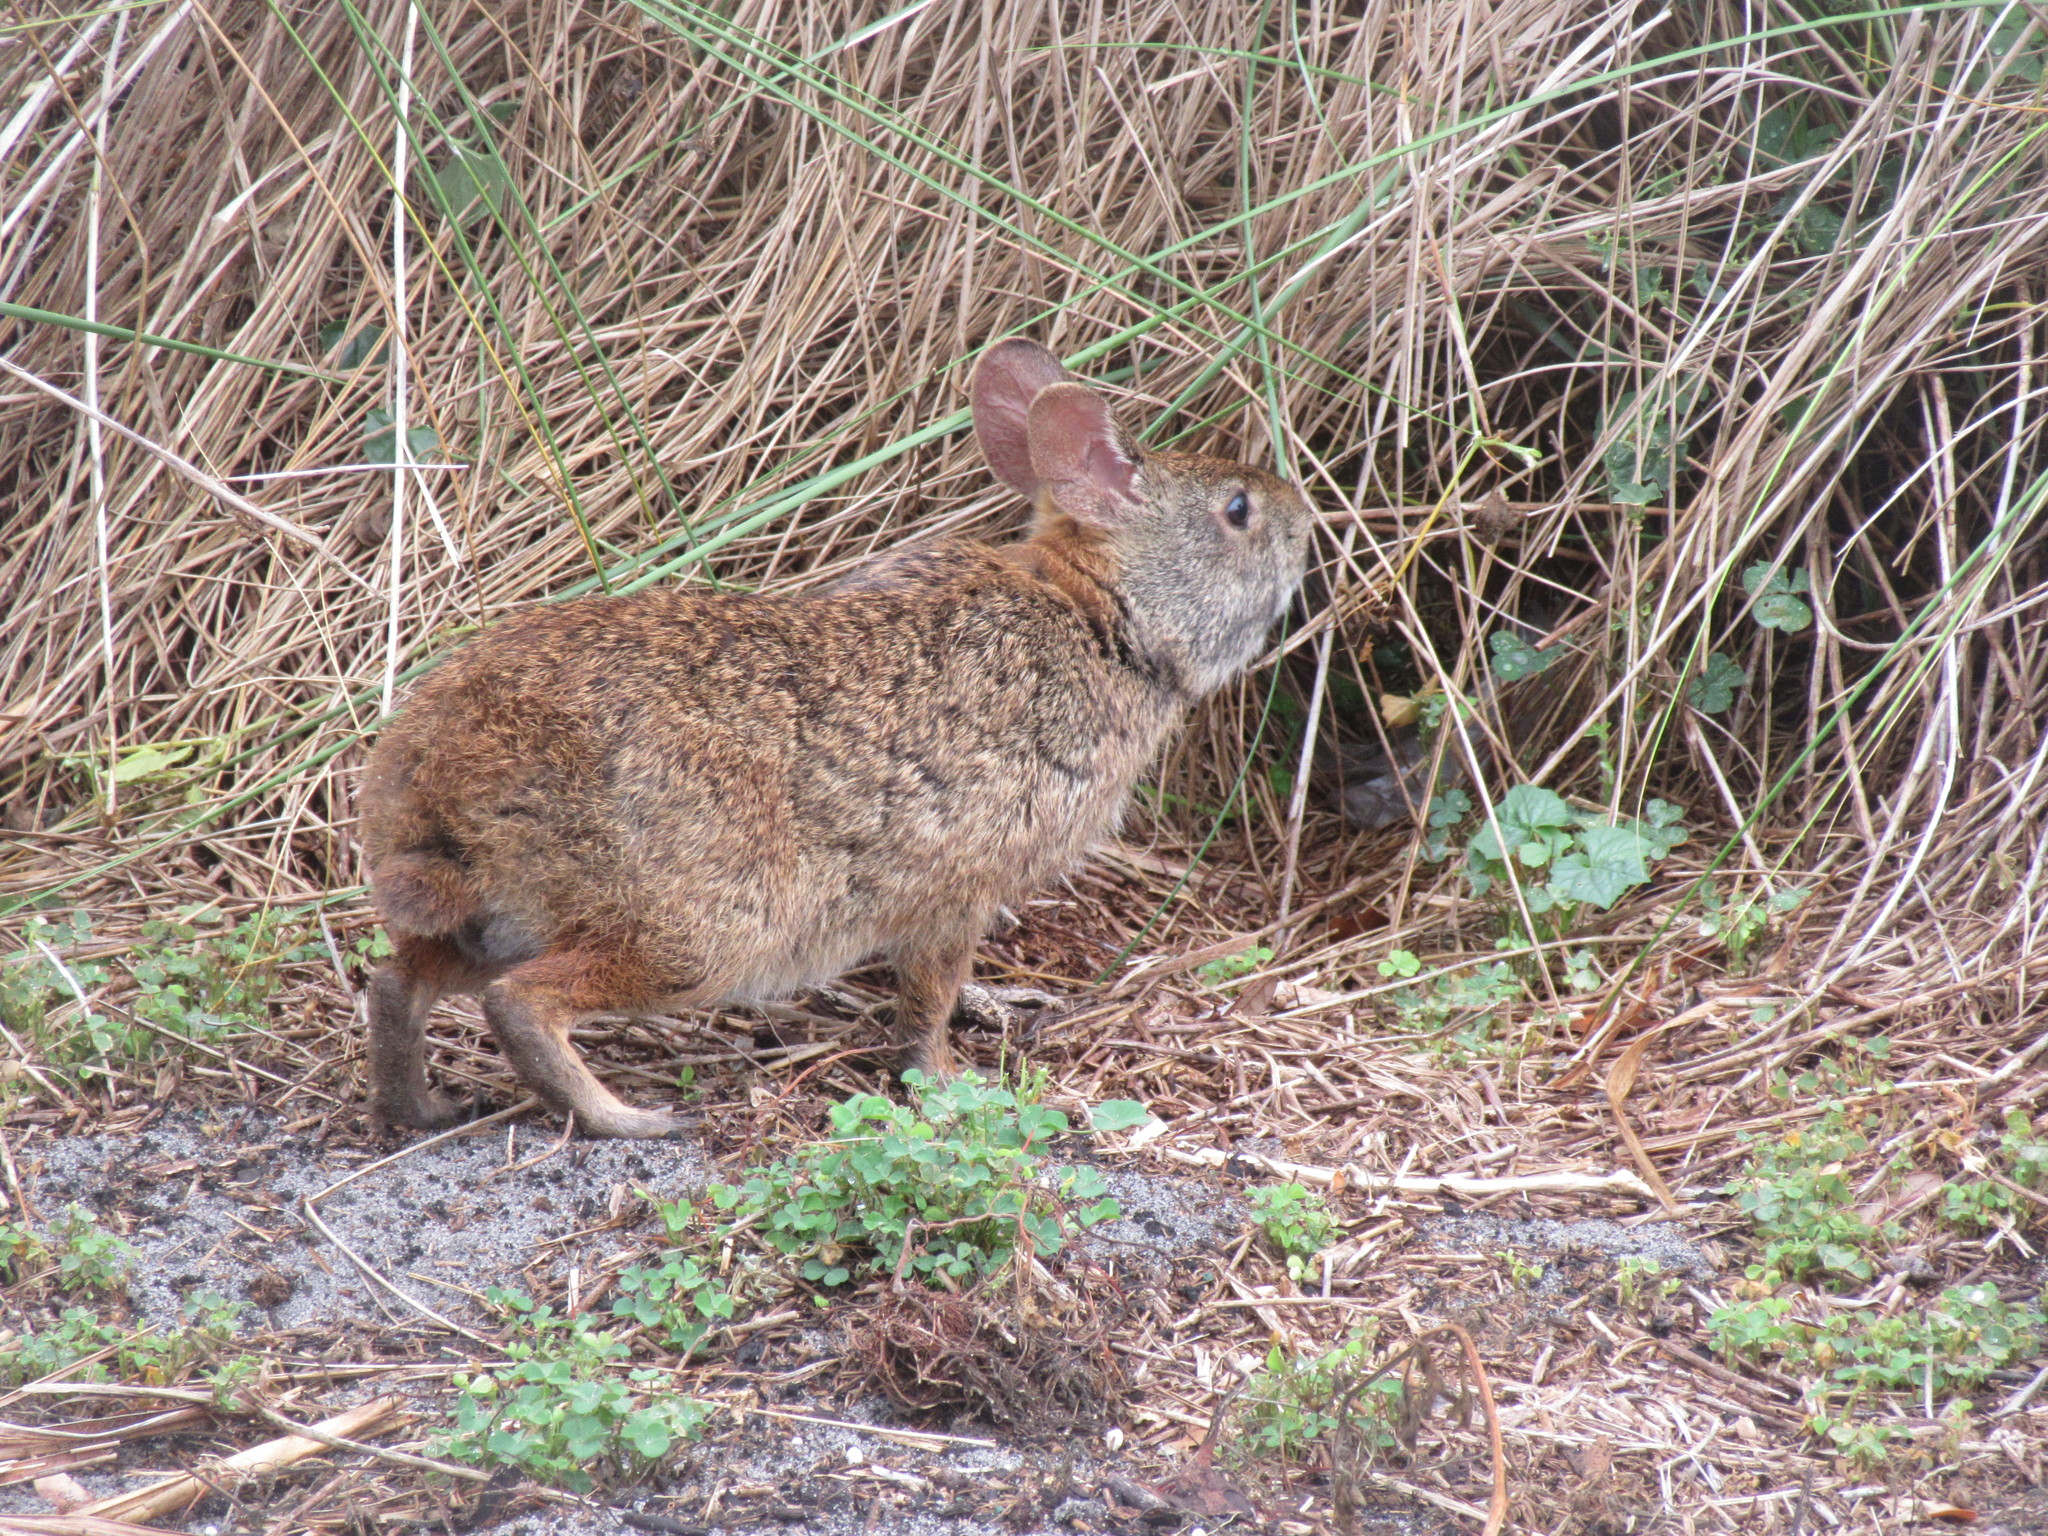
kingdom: Animalia
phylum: Chordata
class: Mammalia
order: Lagomorpha
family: Leporidae
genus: Sylvilagus
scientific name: Sylvilagus palustris
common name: Marsh rabbit
